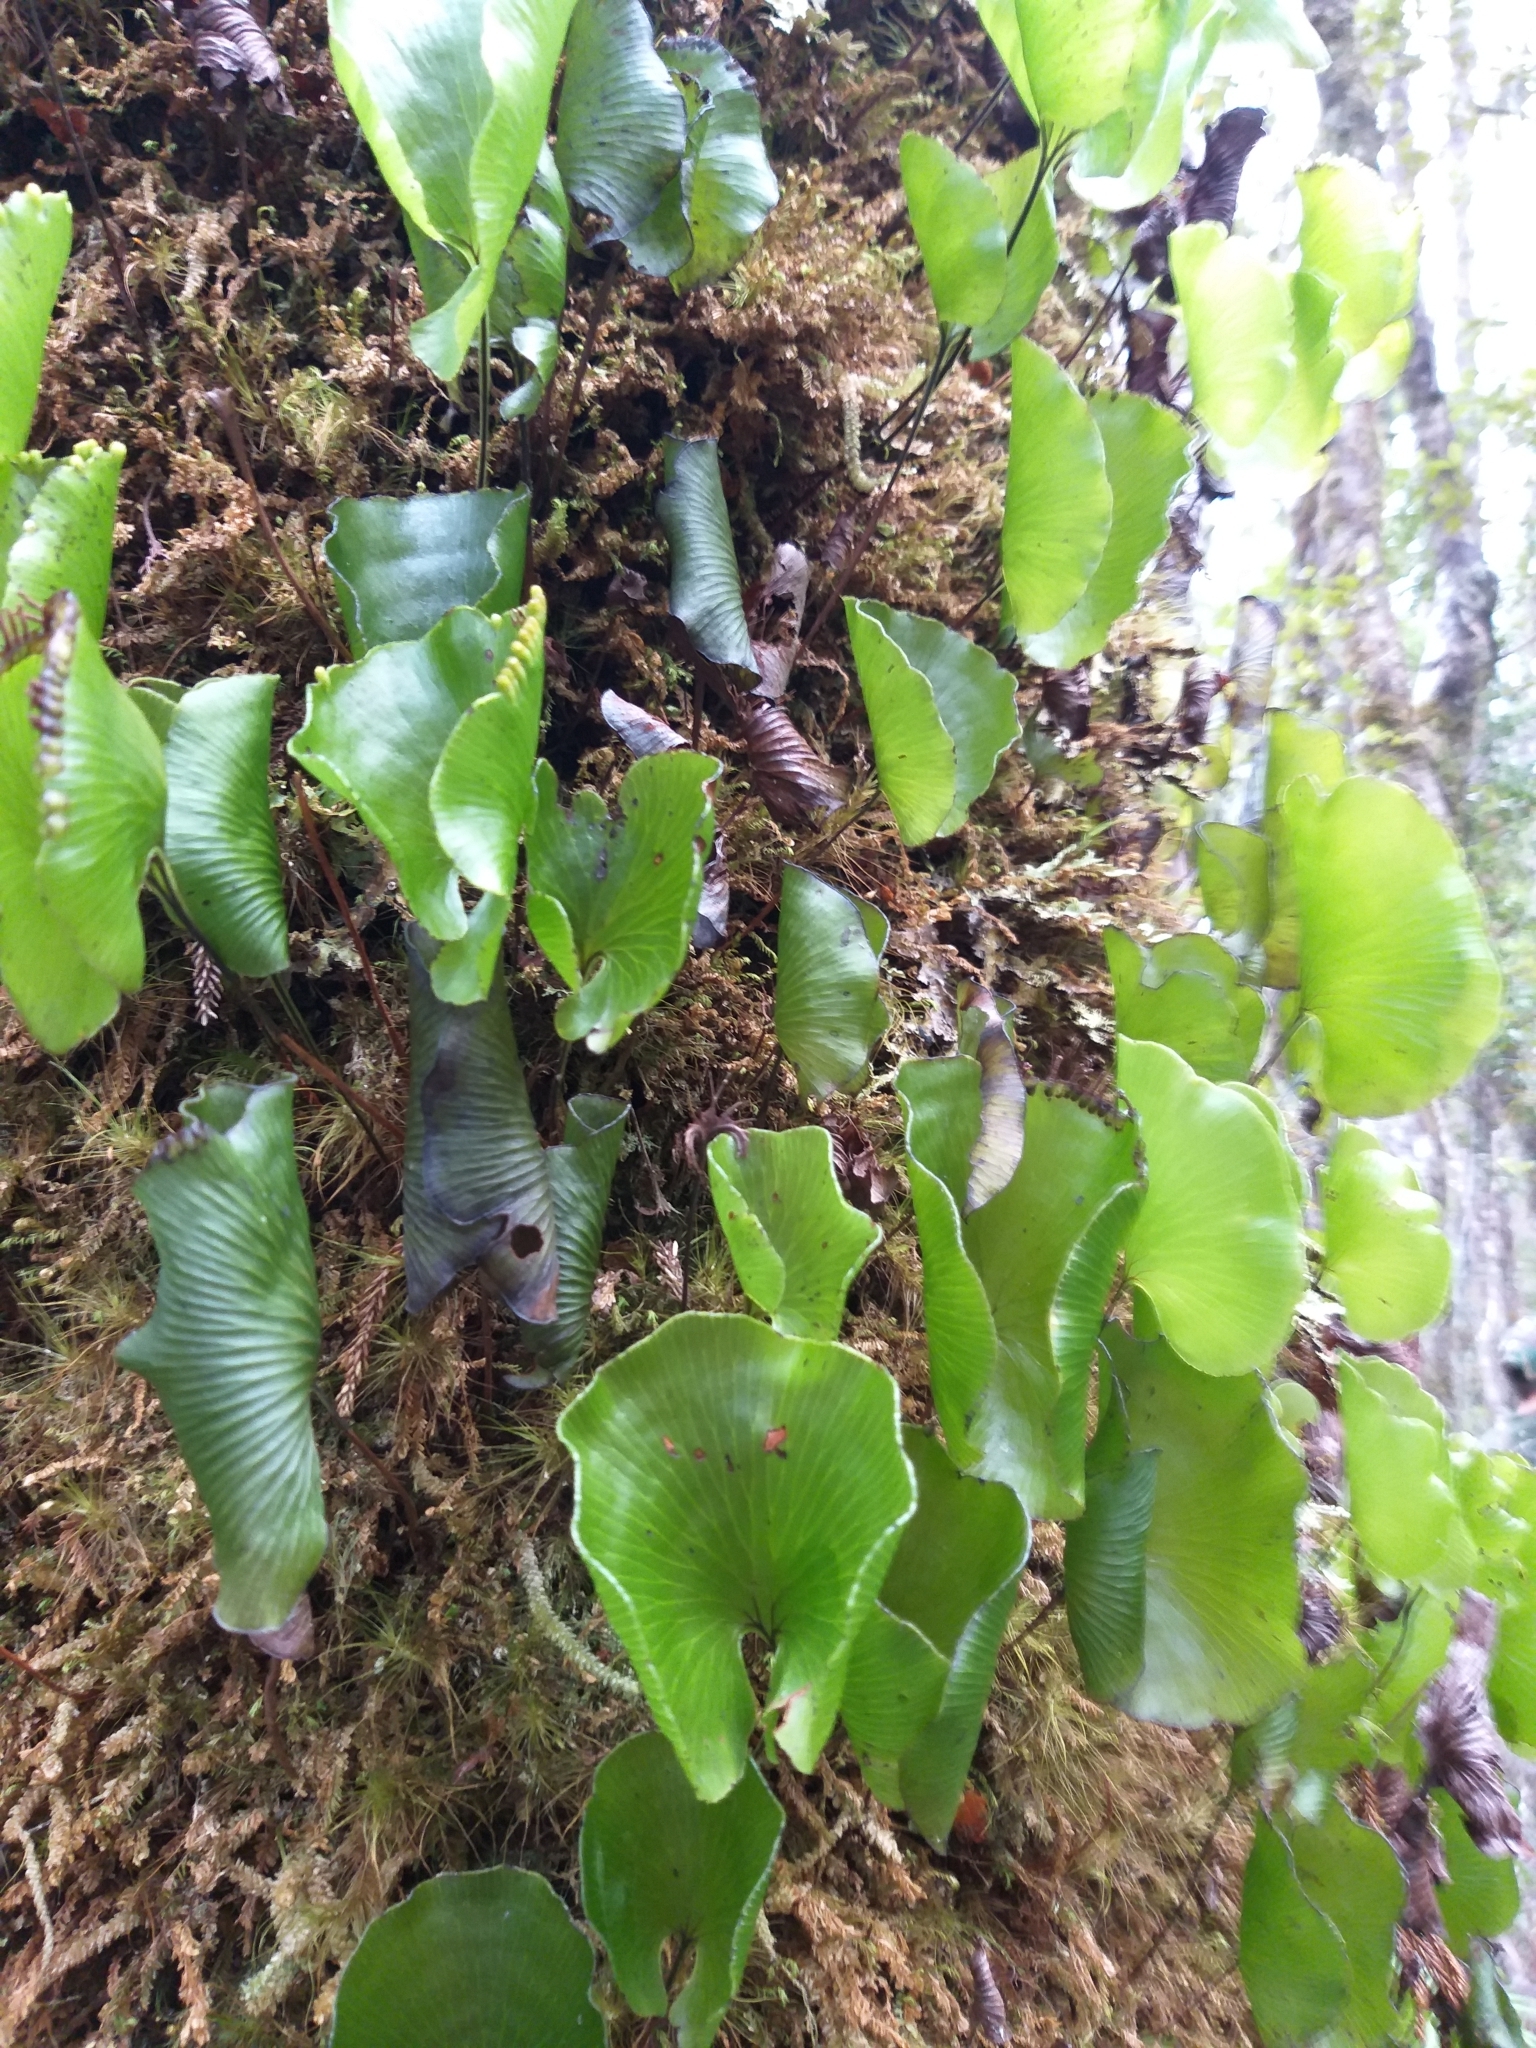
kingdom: Plantae
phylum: Tracheophyta
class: Polypodiopsida
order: Hymenophyllales
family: Hymenophyllaceae
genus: Hymenophyllum
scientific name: Hymenophyllum nephrophyllum
